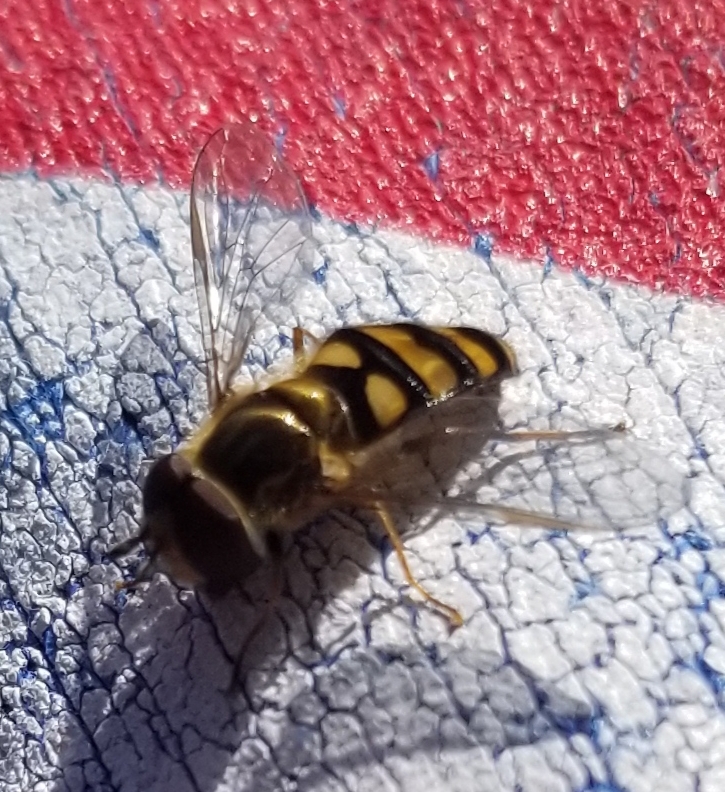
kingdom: Animalia
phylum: Arthropoda
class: Insecta
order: Diptera
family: Syrphidae
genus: Eupeodes
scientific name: Eupeodes
